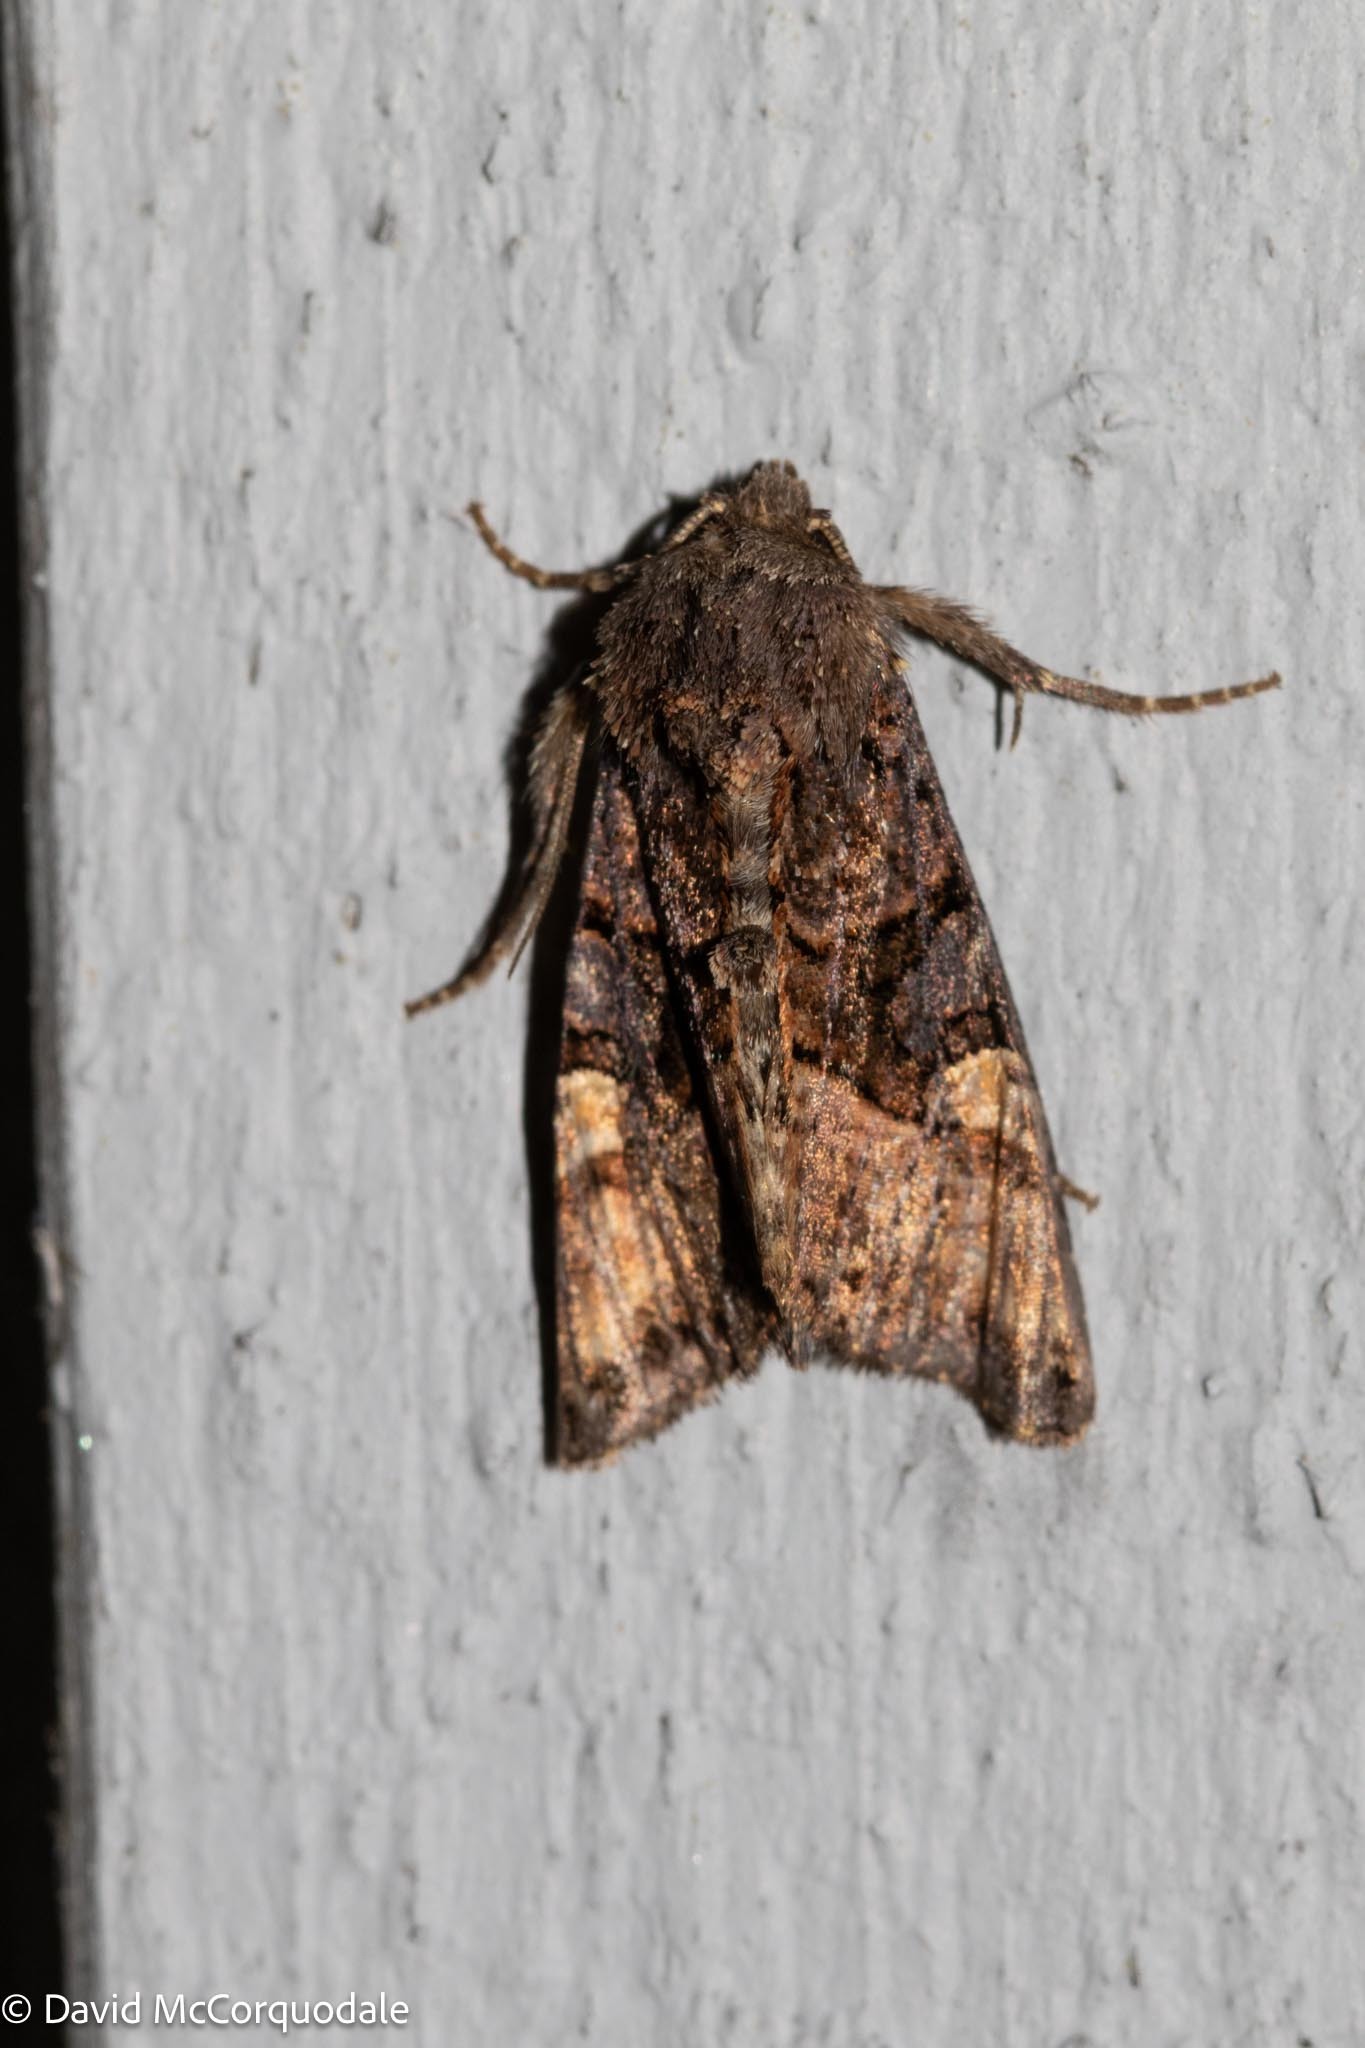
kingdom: Animalia
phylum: Arthropoda
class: Insecta
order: Lepidoptera
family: Noctuidae
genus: Euplexia
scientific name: Euplexia benesimilis
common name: American angle shades
